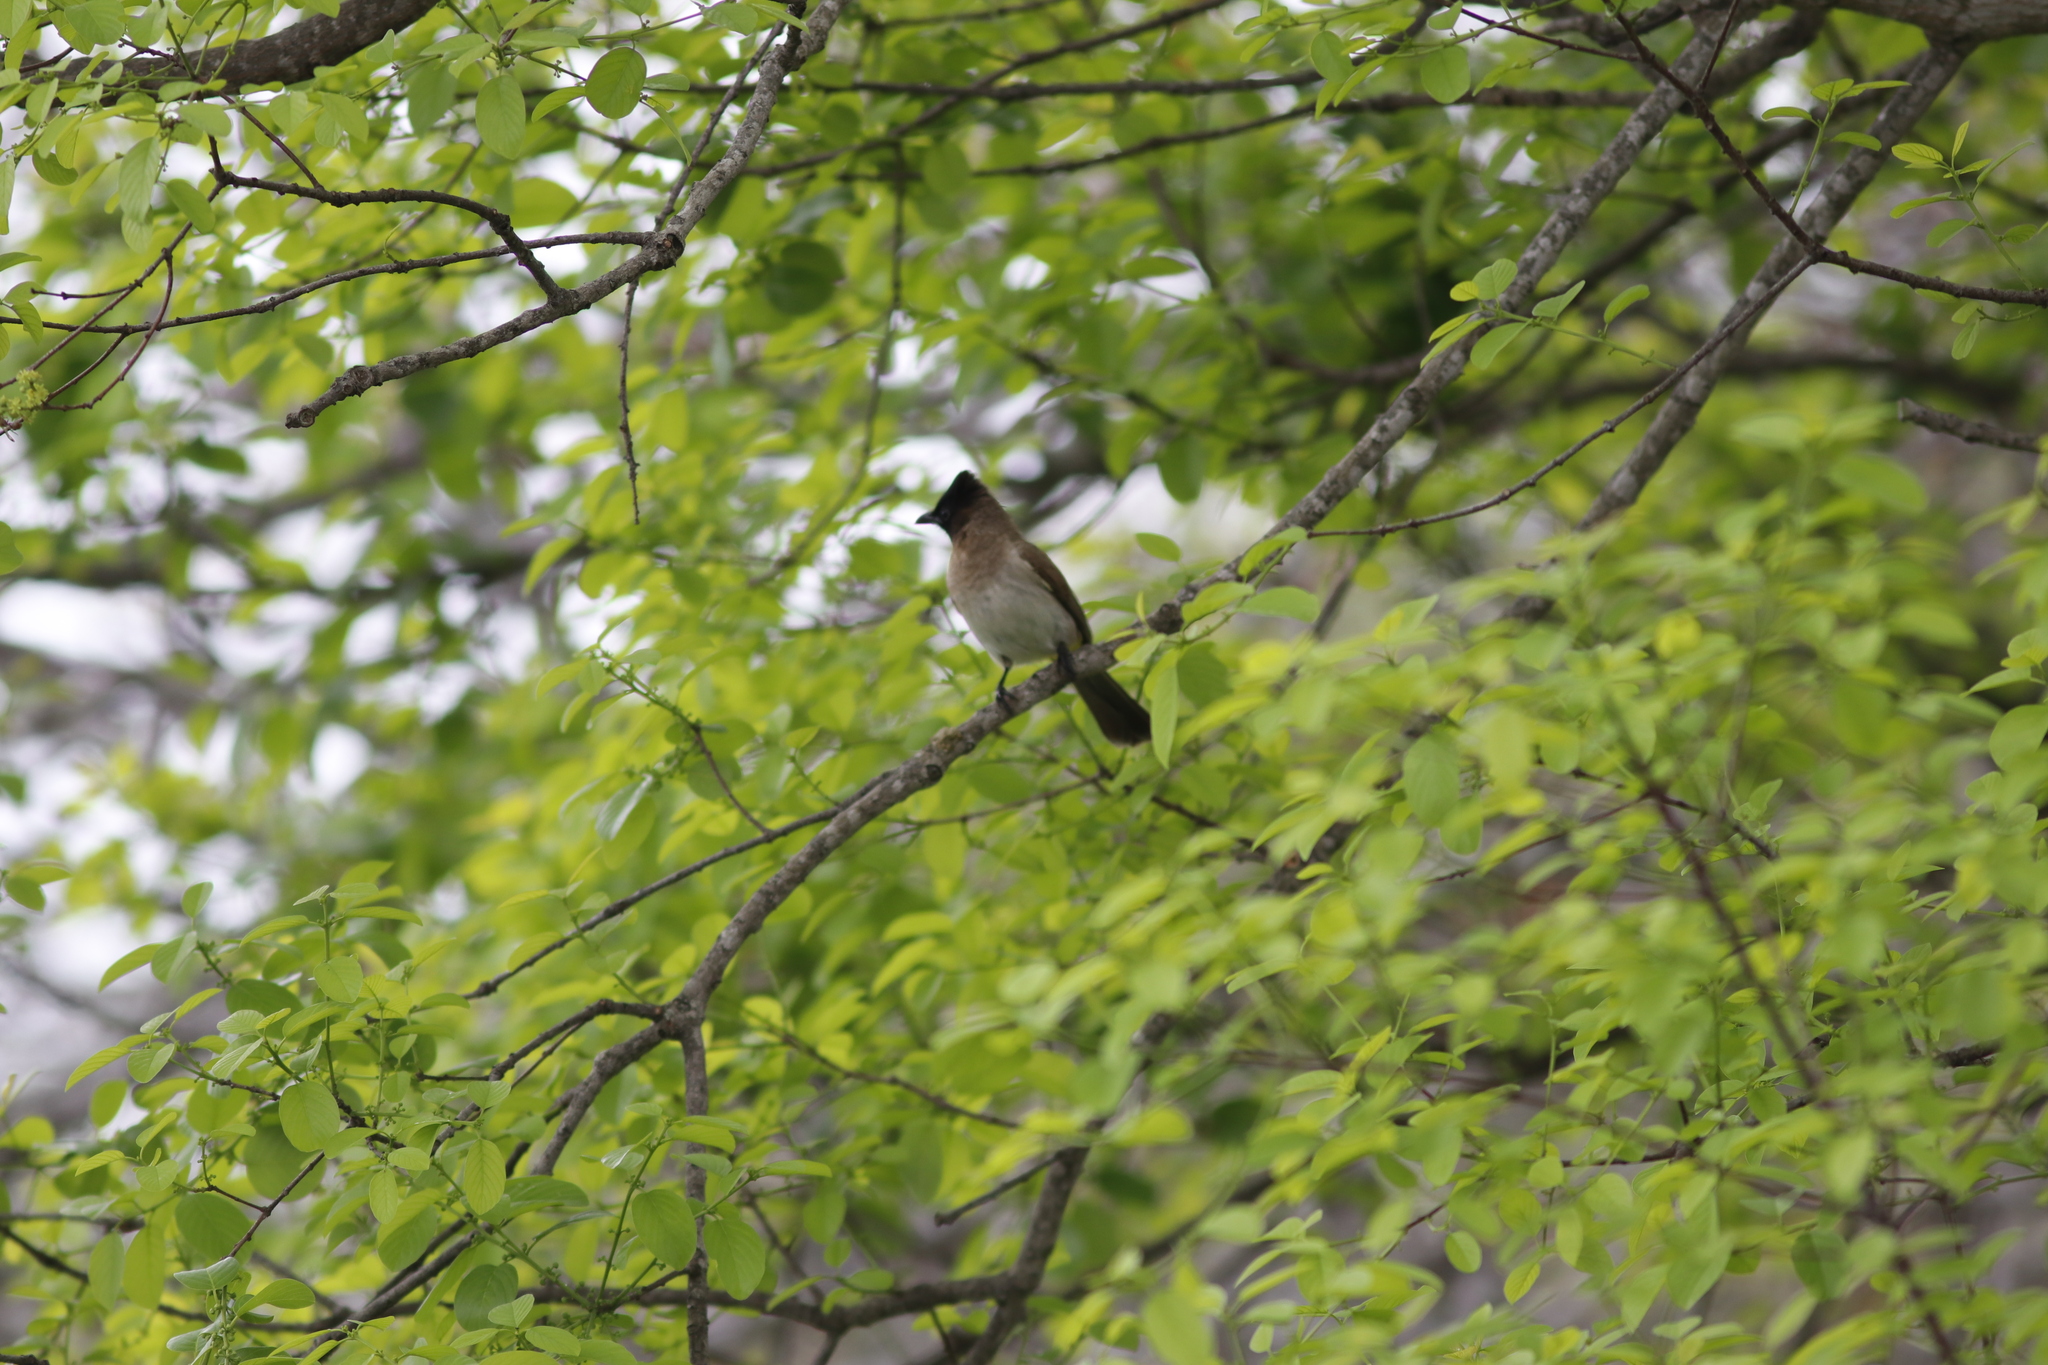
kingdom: Animalia
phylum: Chordata
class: Aves
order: Passeriformes
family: Pycnonotidae
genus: Pycnonotus
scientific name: Pycnonotus barbatus
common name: Common bulbul
